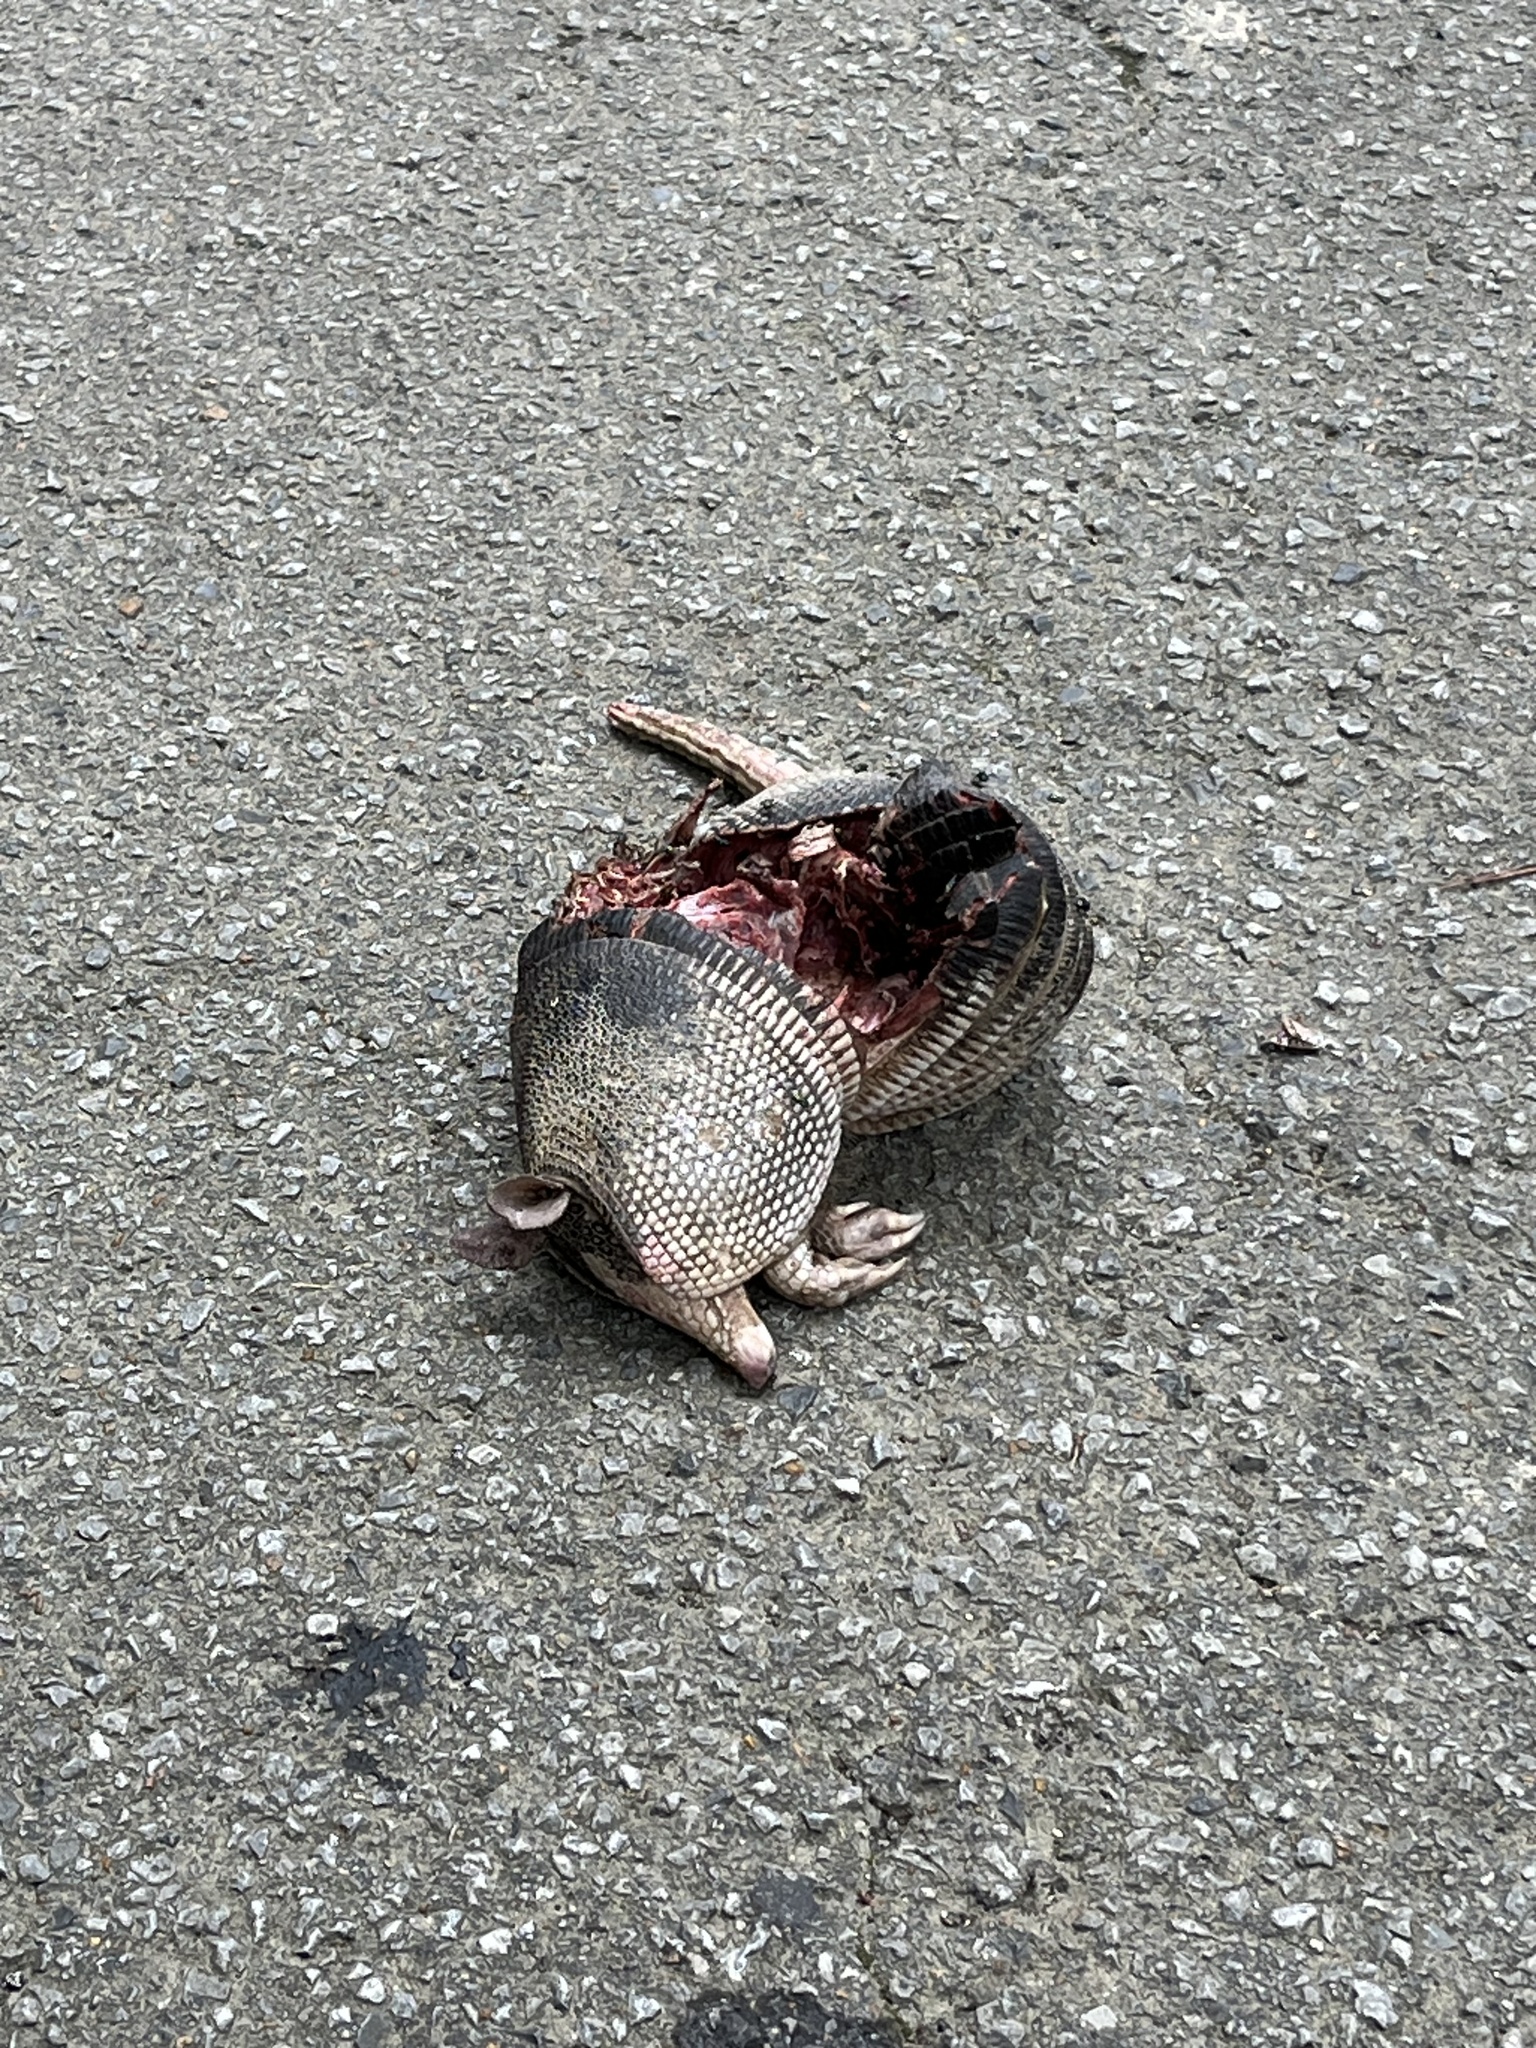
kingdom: Animalia
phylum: Chordata
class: Mammalia
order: Cingulata
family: Dasypodidae
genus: Dasypus
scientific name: Dasypus novemcinctus
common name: Nine-banded armadillo
